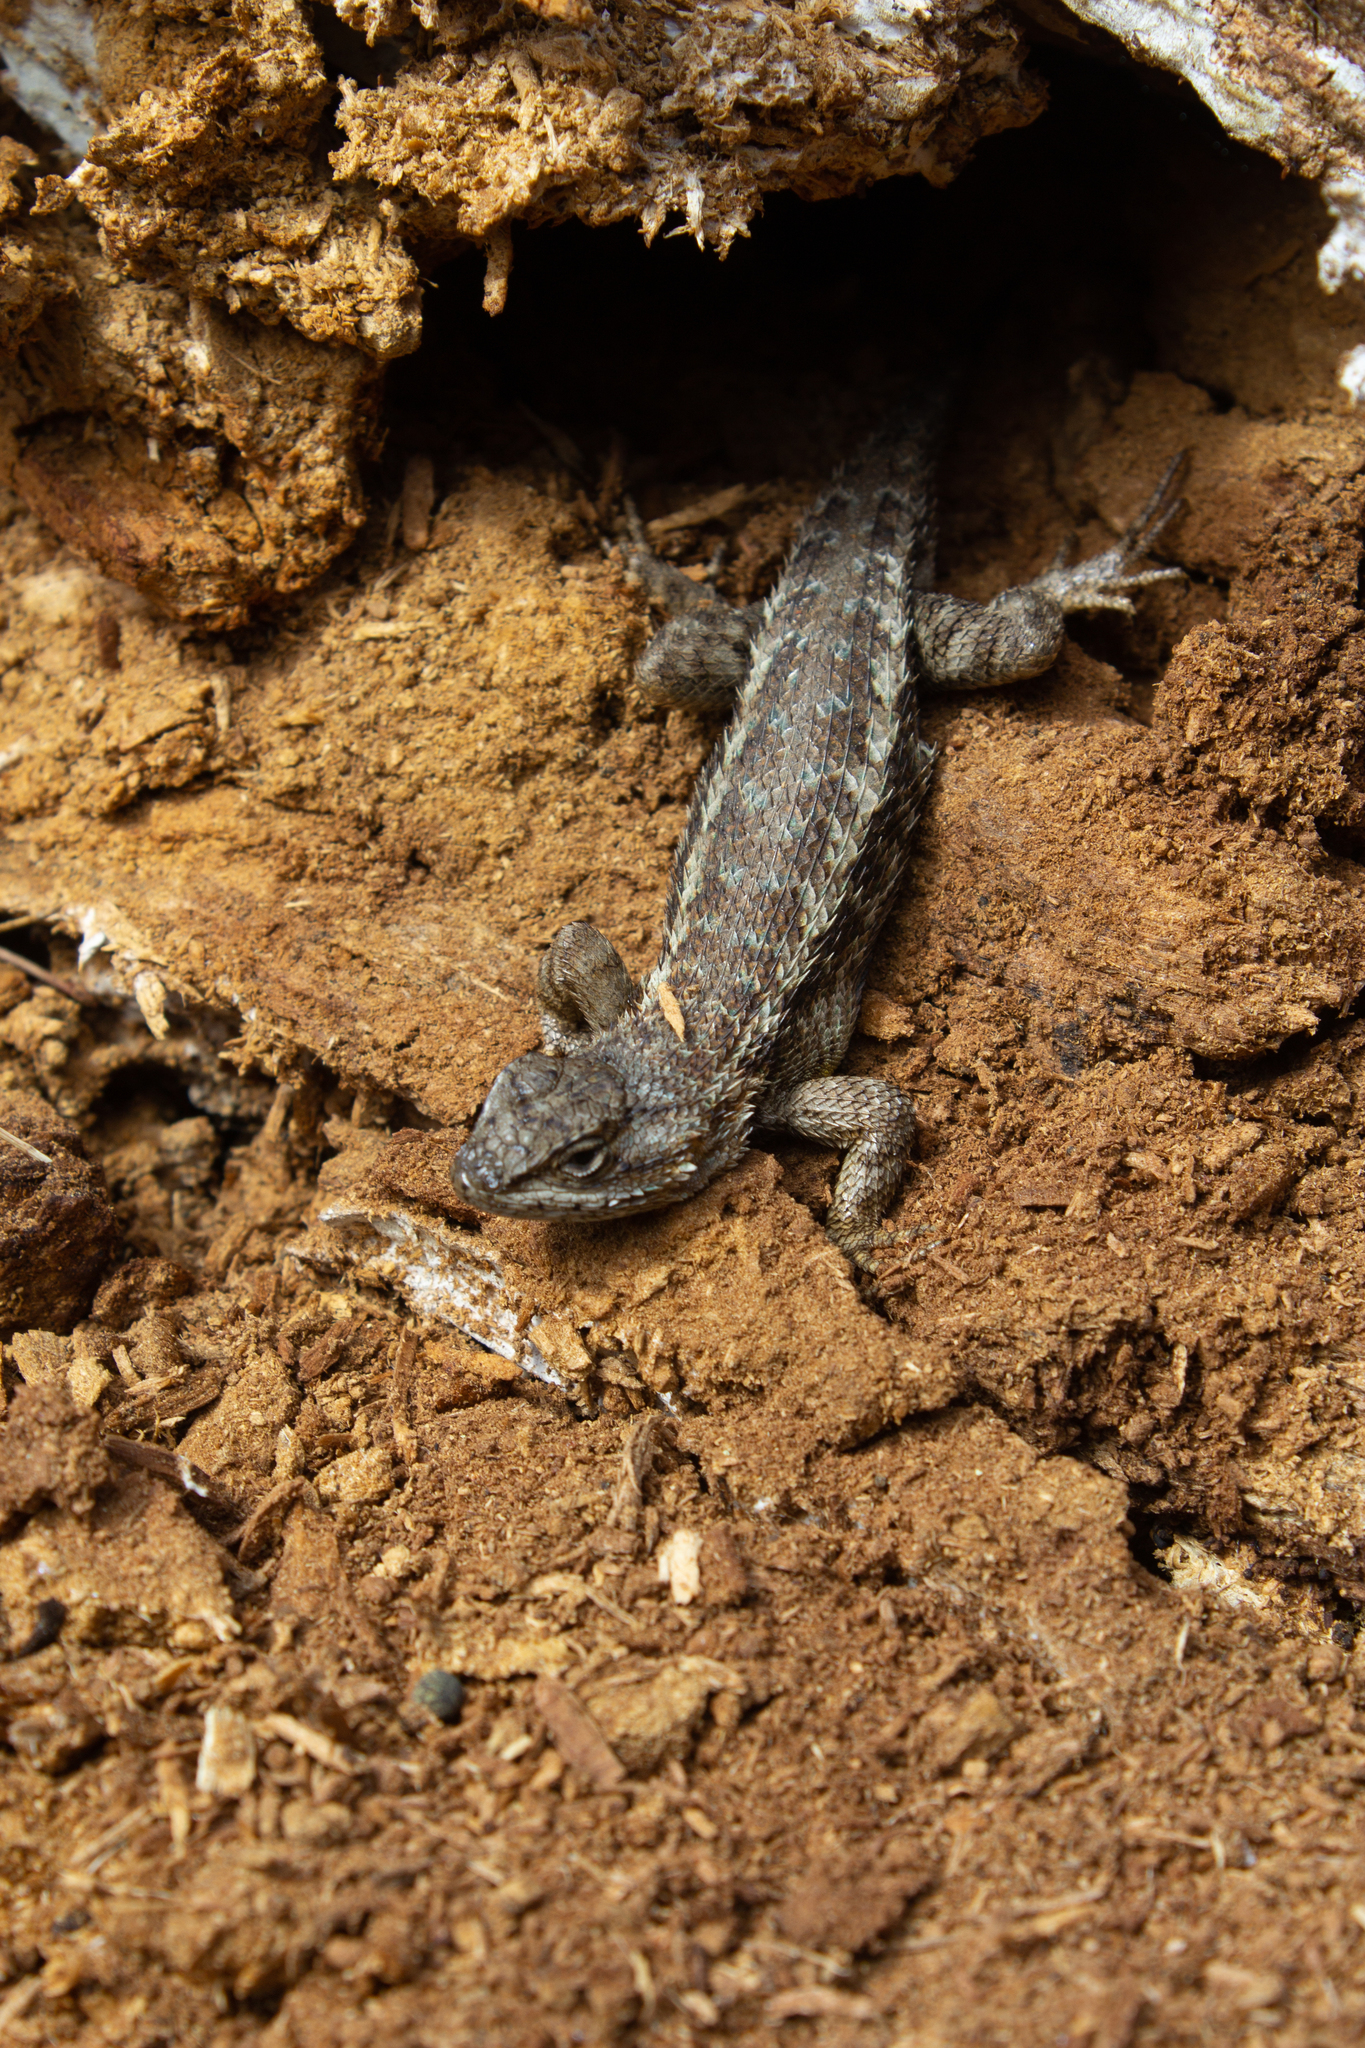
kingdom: Animalia
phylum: Chordata
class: Squamata
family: Phrynosomatidae
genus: Sceloporus
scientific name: Sceloporus occidentalis
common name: Western fence lizard
